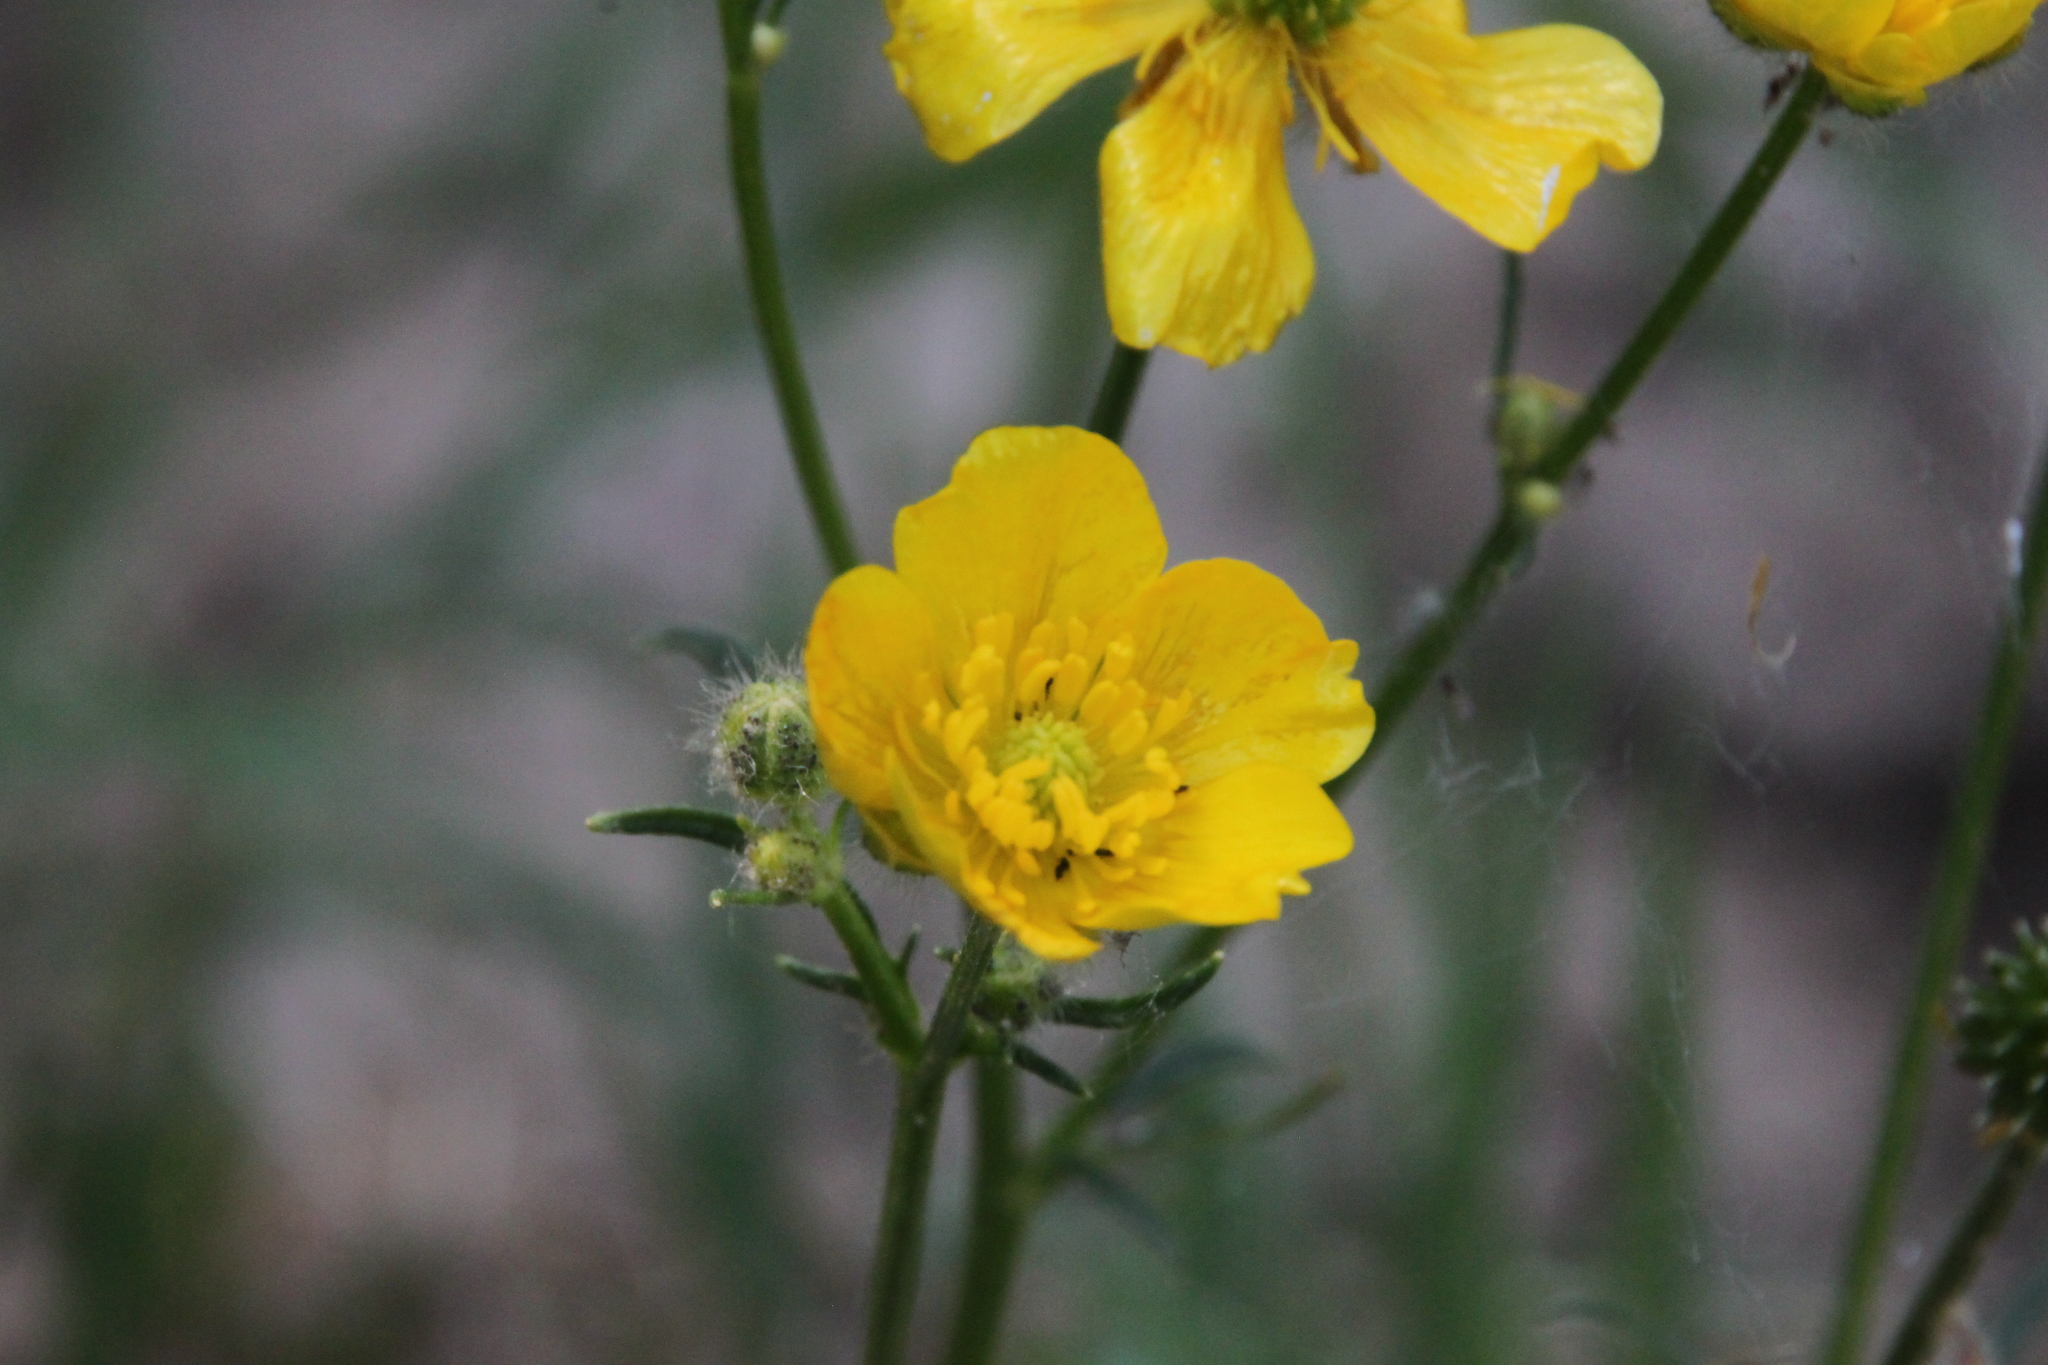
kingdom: Plantae
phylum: Tracheophyta
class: Magnoliopsida
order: Ranunculales
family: Ranunculaceae
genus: Ranunculus
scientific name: Ranunculus polyanthemos
